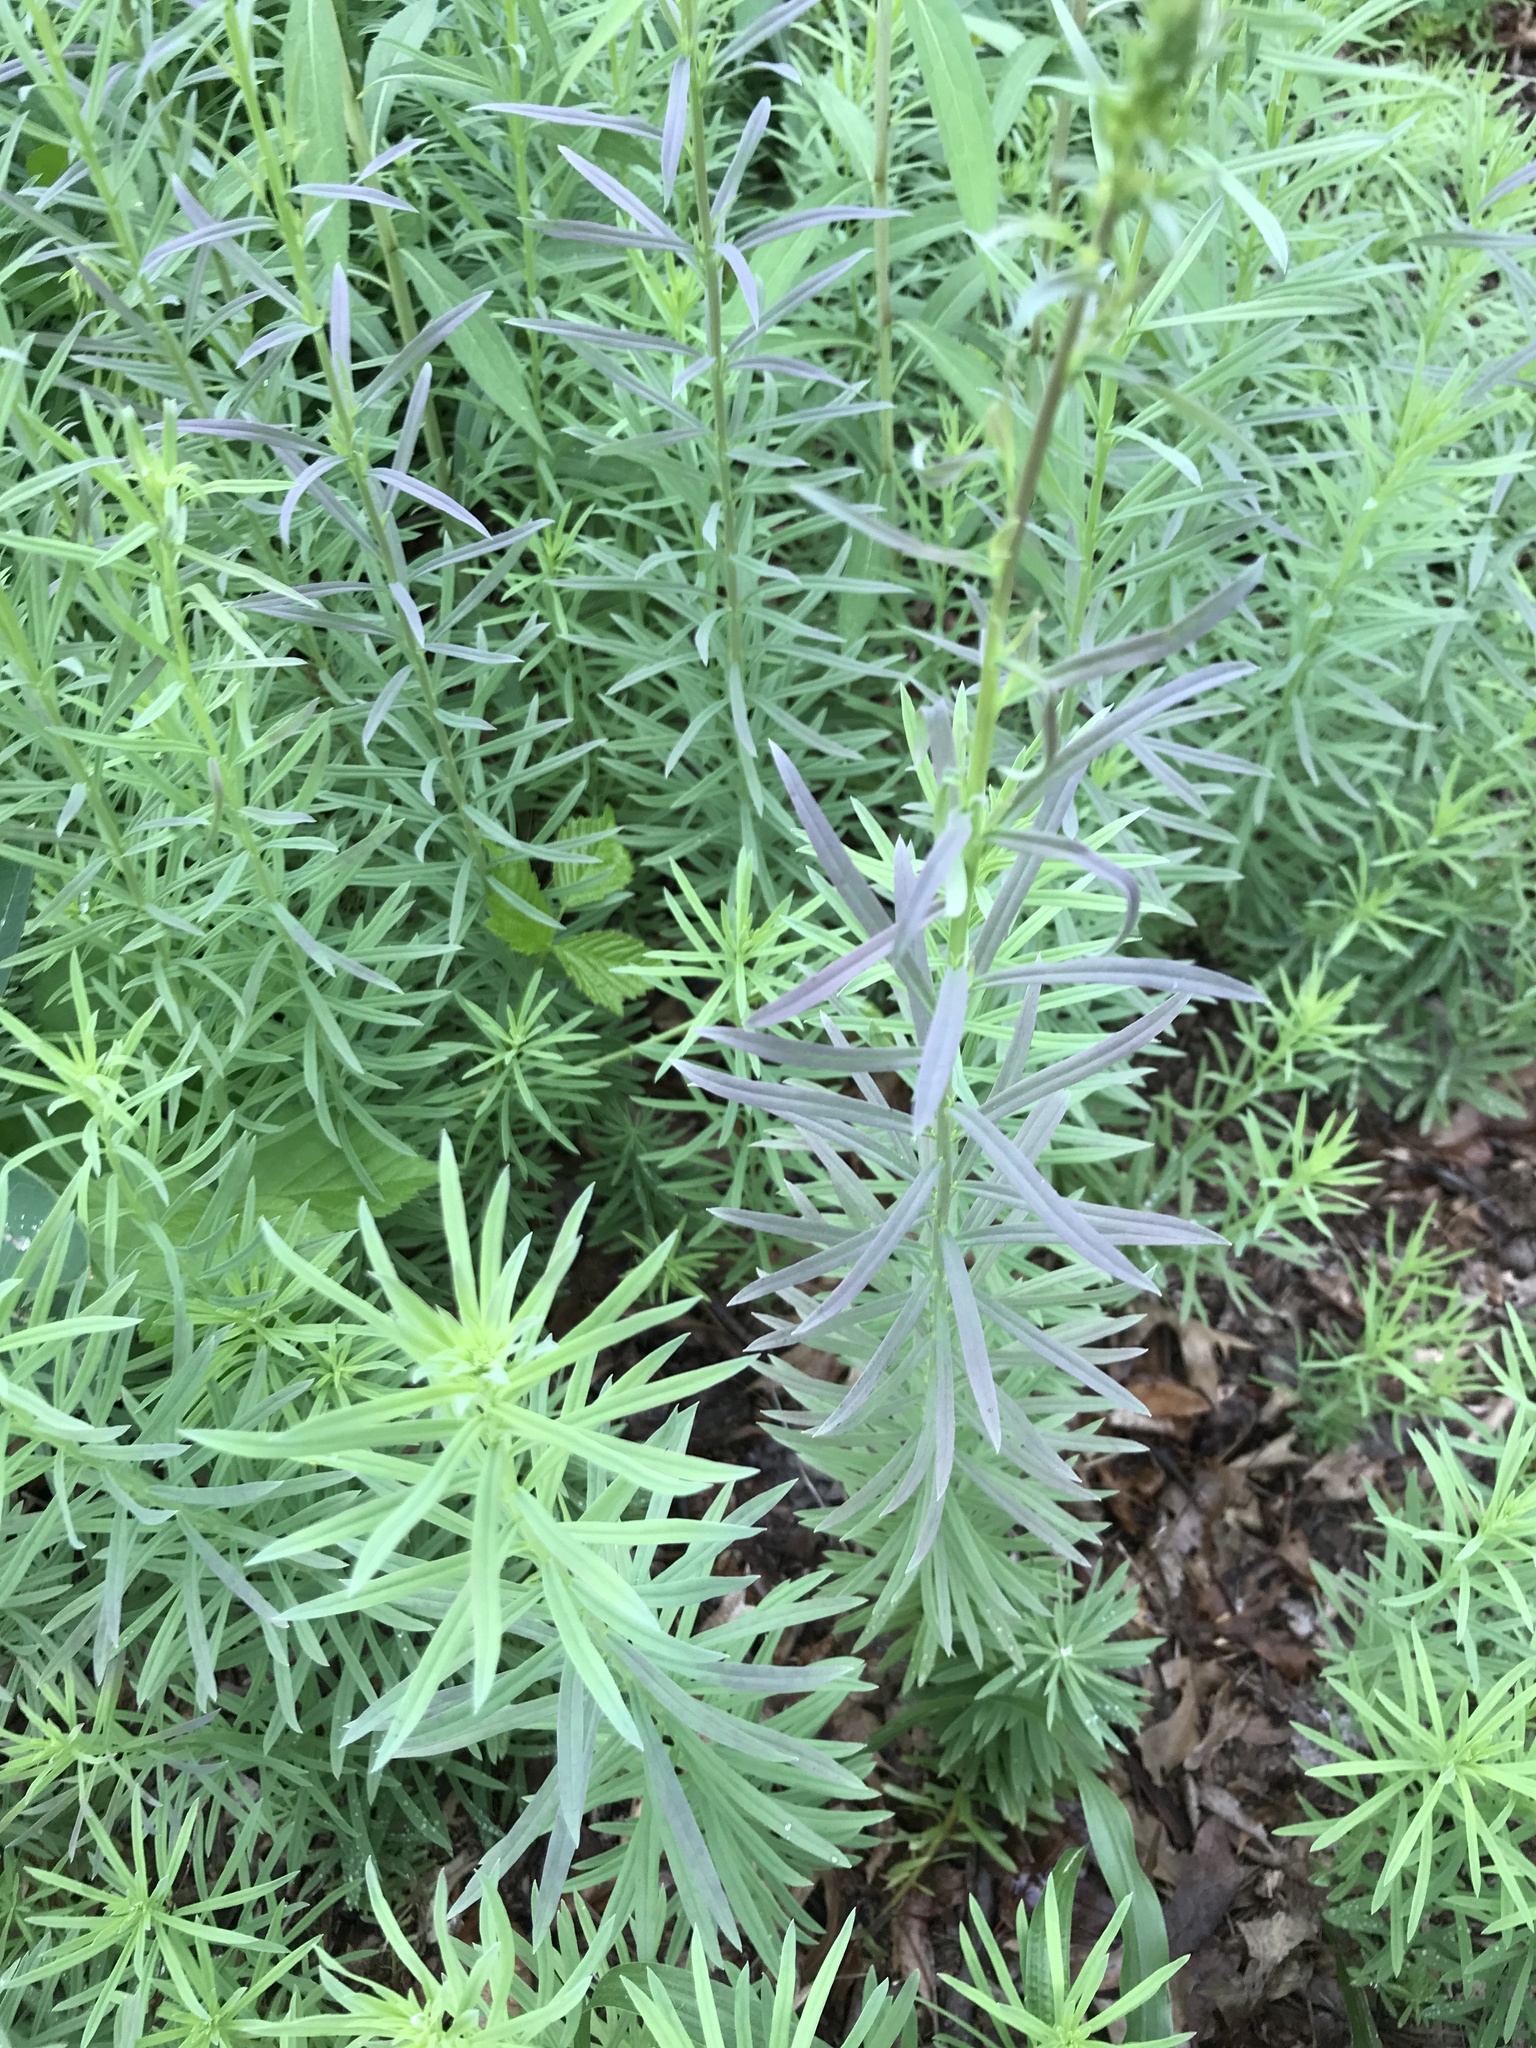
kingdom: Plantae
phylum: Tracheophyta
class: Magnoliopsida
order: Lamiales
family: Plantaginaceae
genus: Linaria
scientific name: Linaria vulgaris
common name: Butter and eggs
